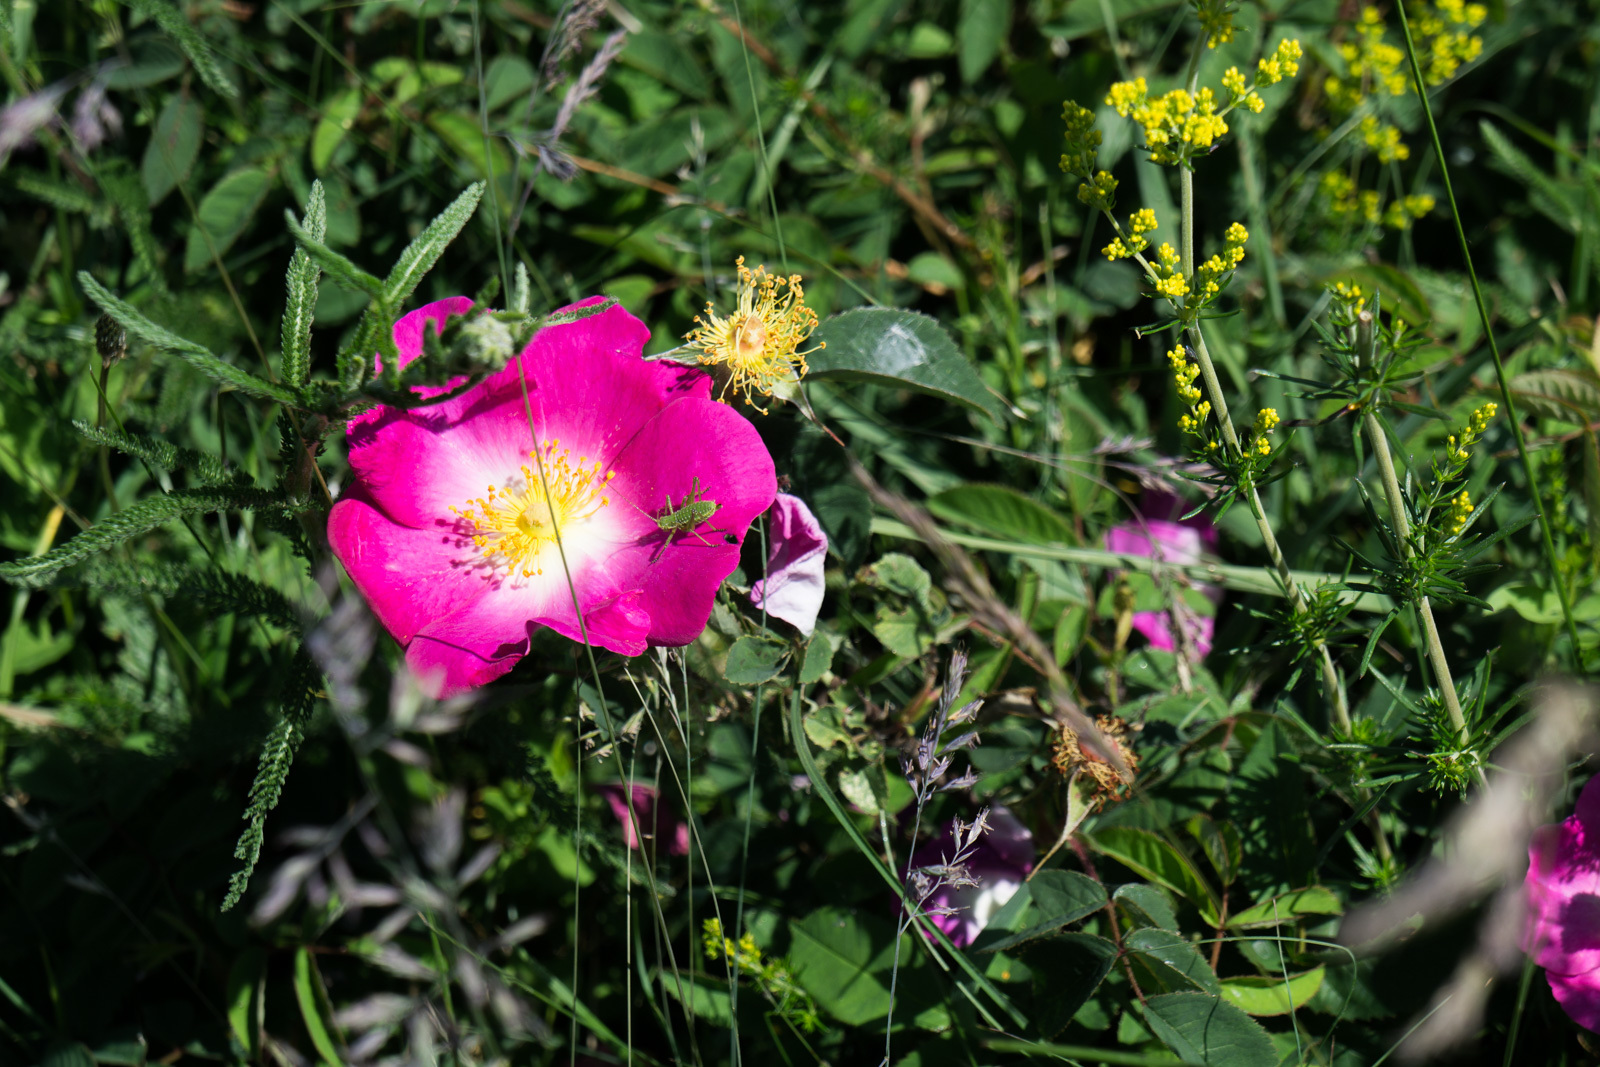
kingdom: Plantae
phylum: Tracheophyta
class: Magnoliopsida
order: Rosales
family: Rosaceae
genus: Rosa
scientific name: Rosa gallica
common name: French rose
